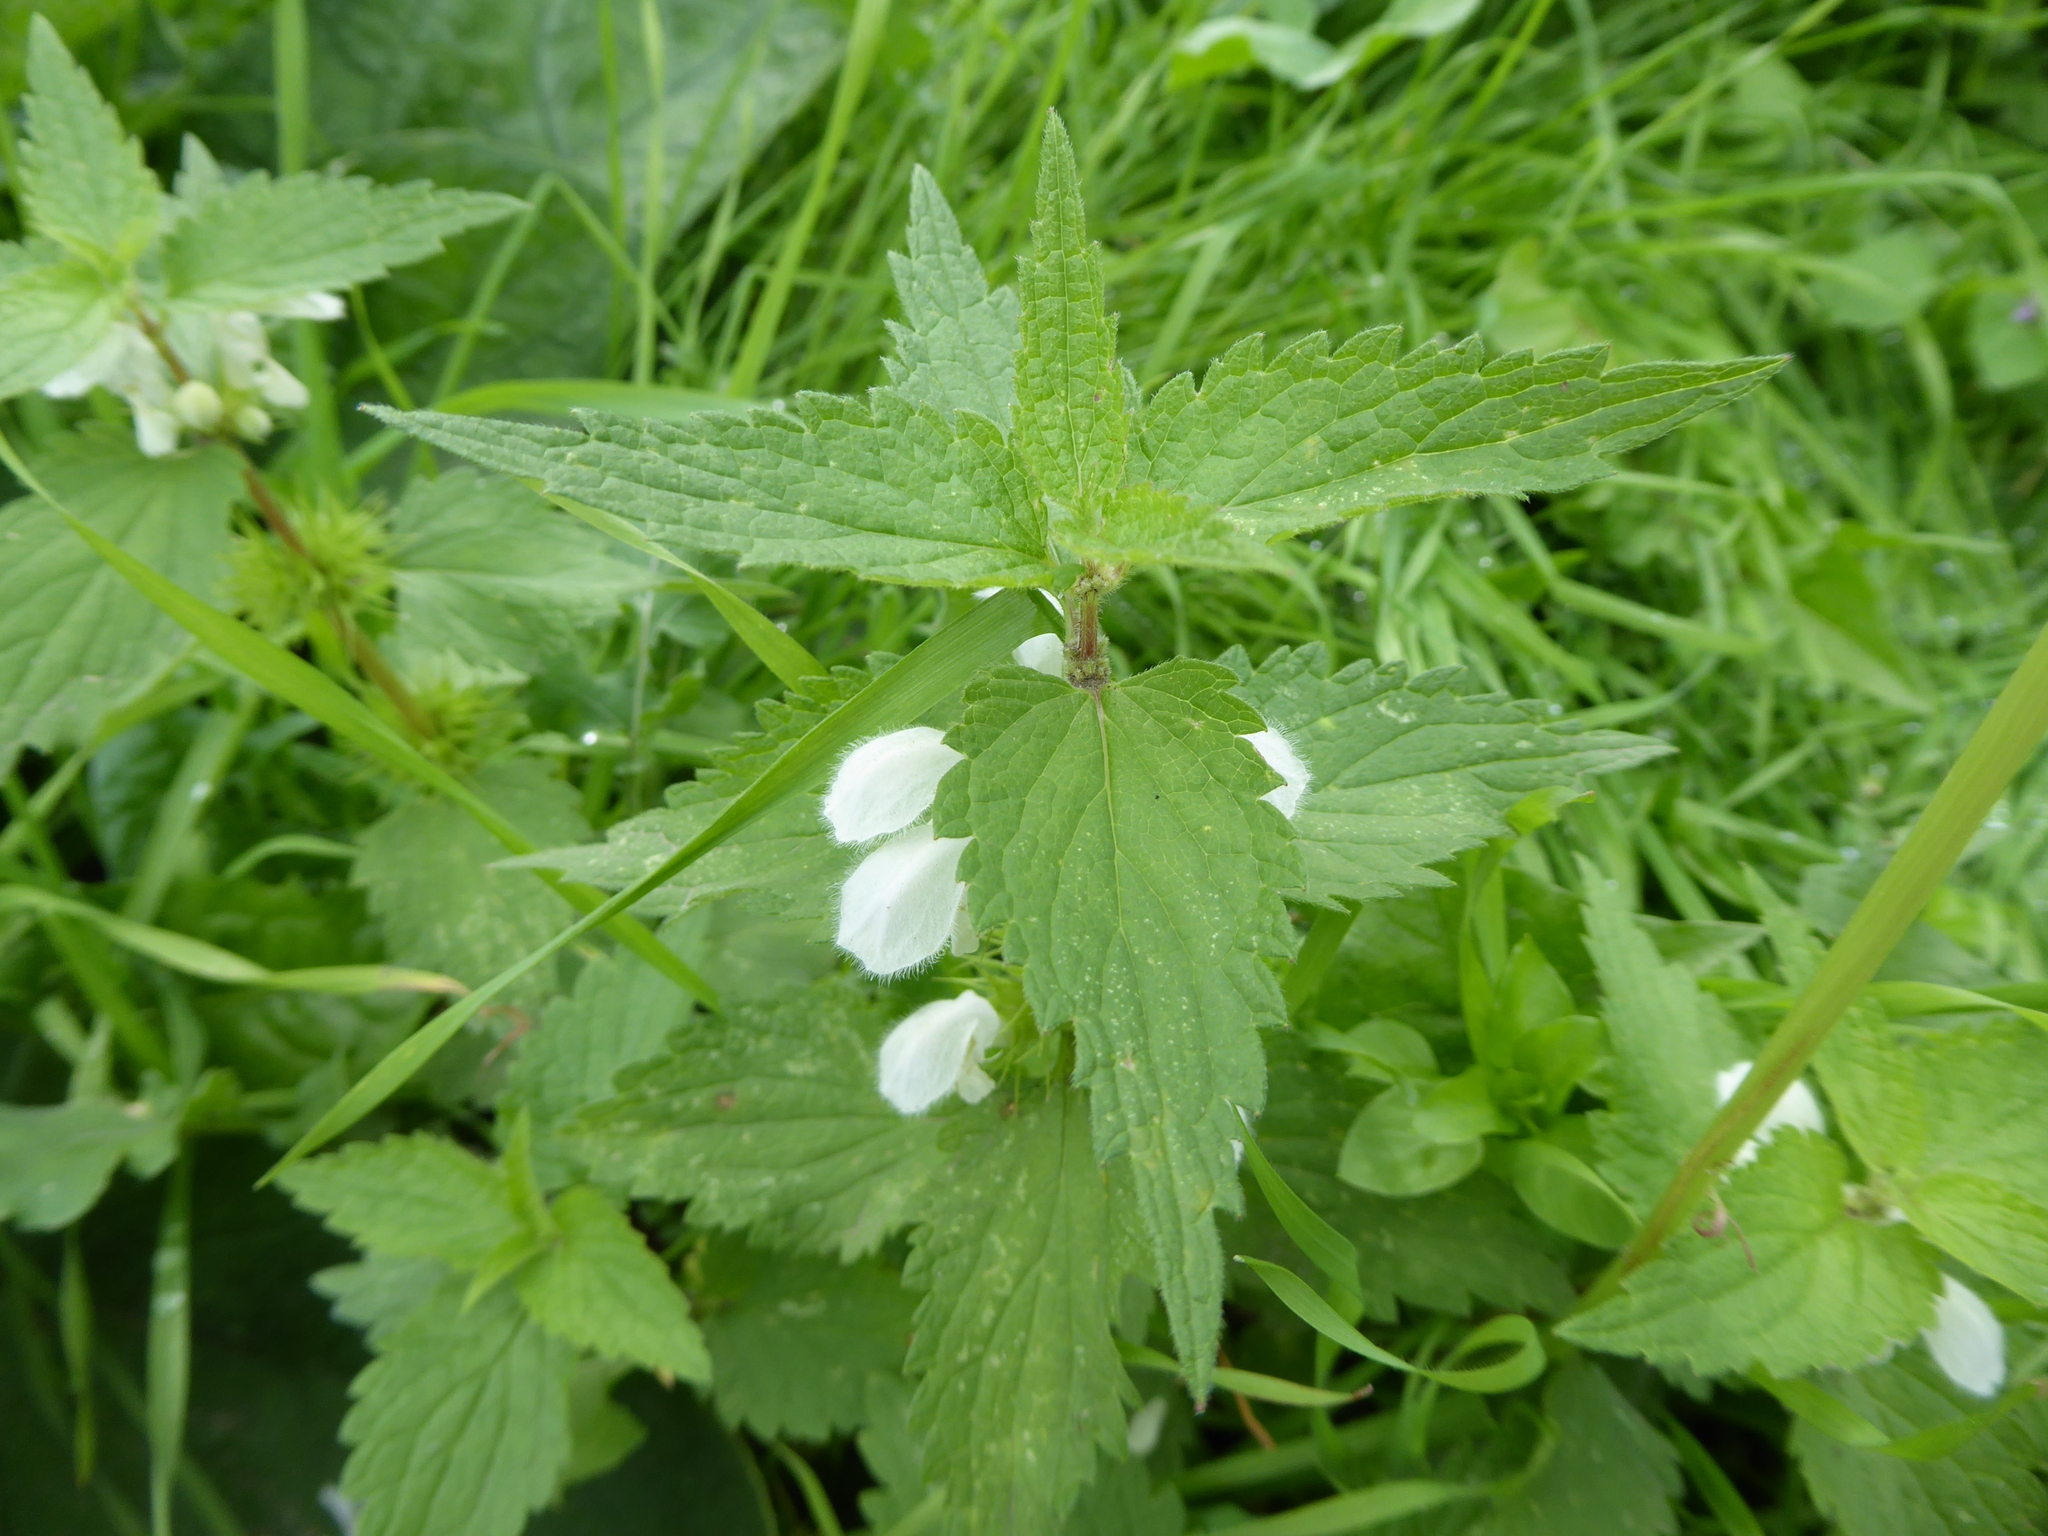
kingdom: Plantae
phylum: Tracheophyta
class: Magnoliopsida
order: Lamiales
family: Lamiaceae
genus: Lamium
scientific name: Lamium album
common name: White dead-nettle
